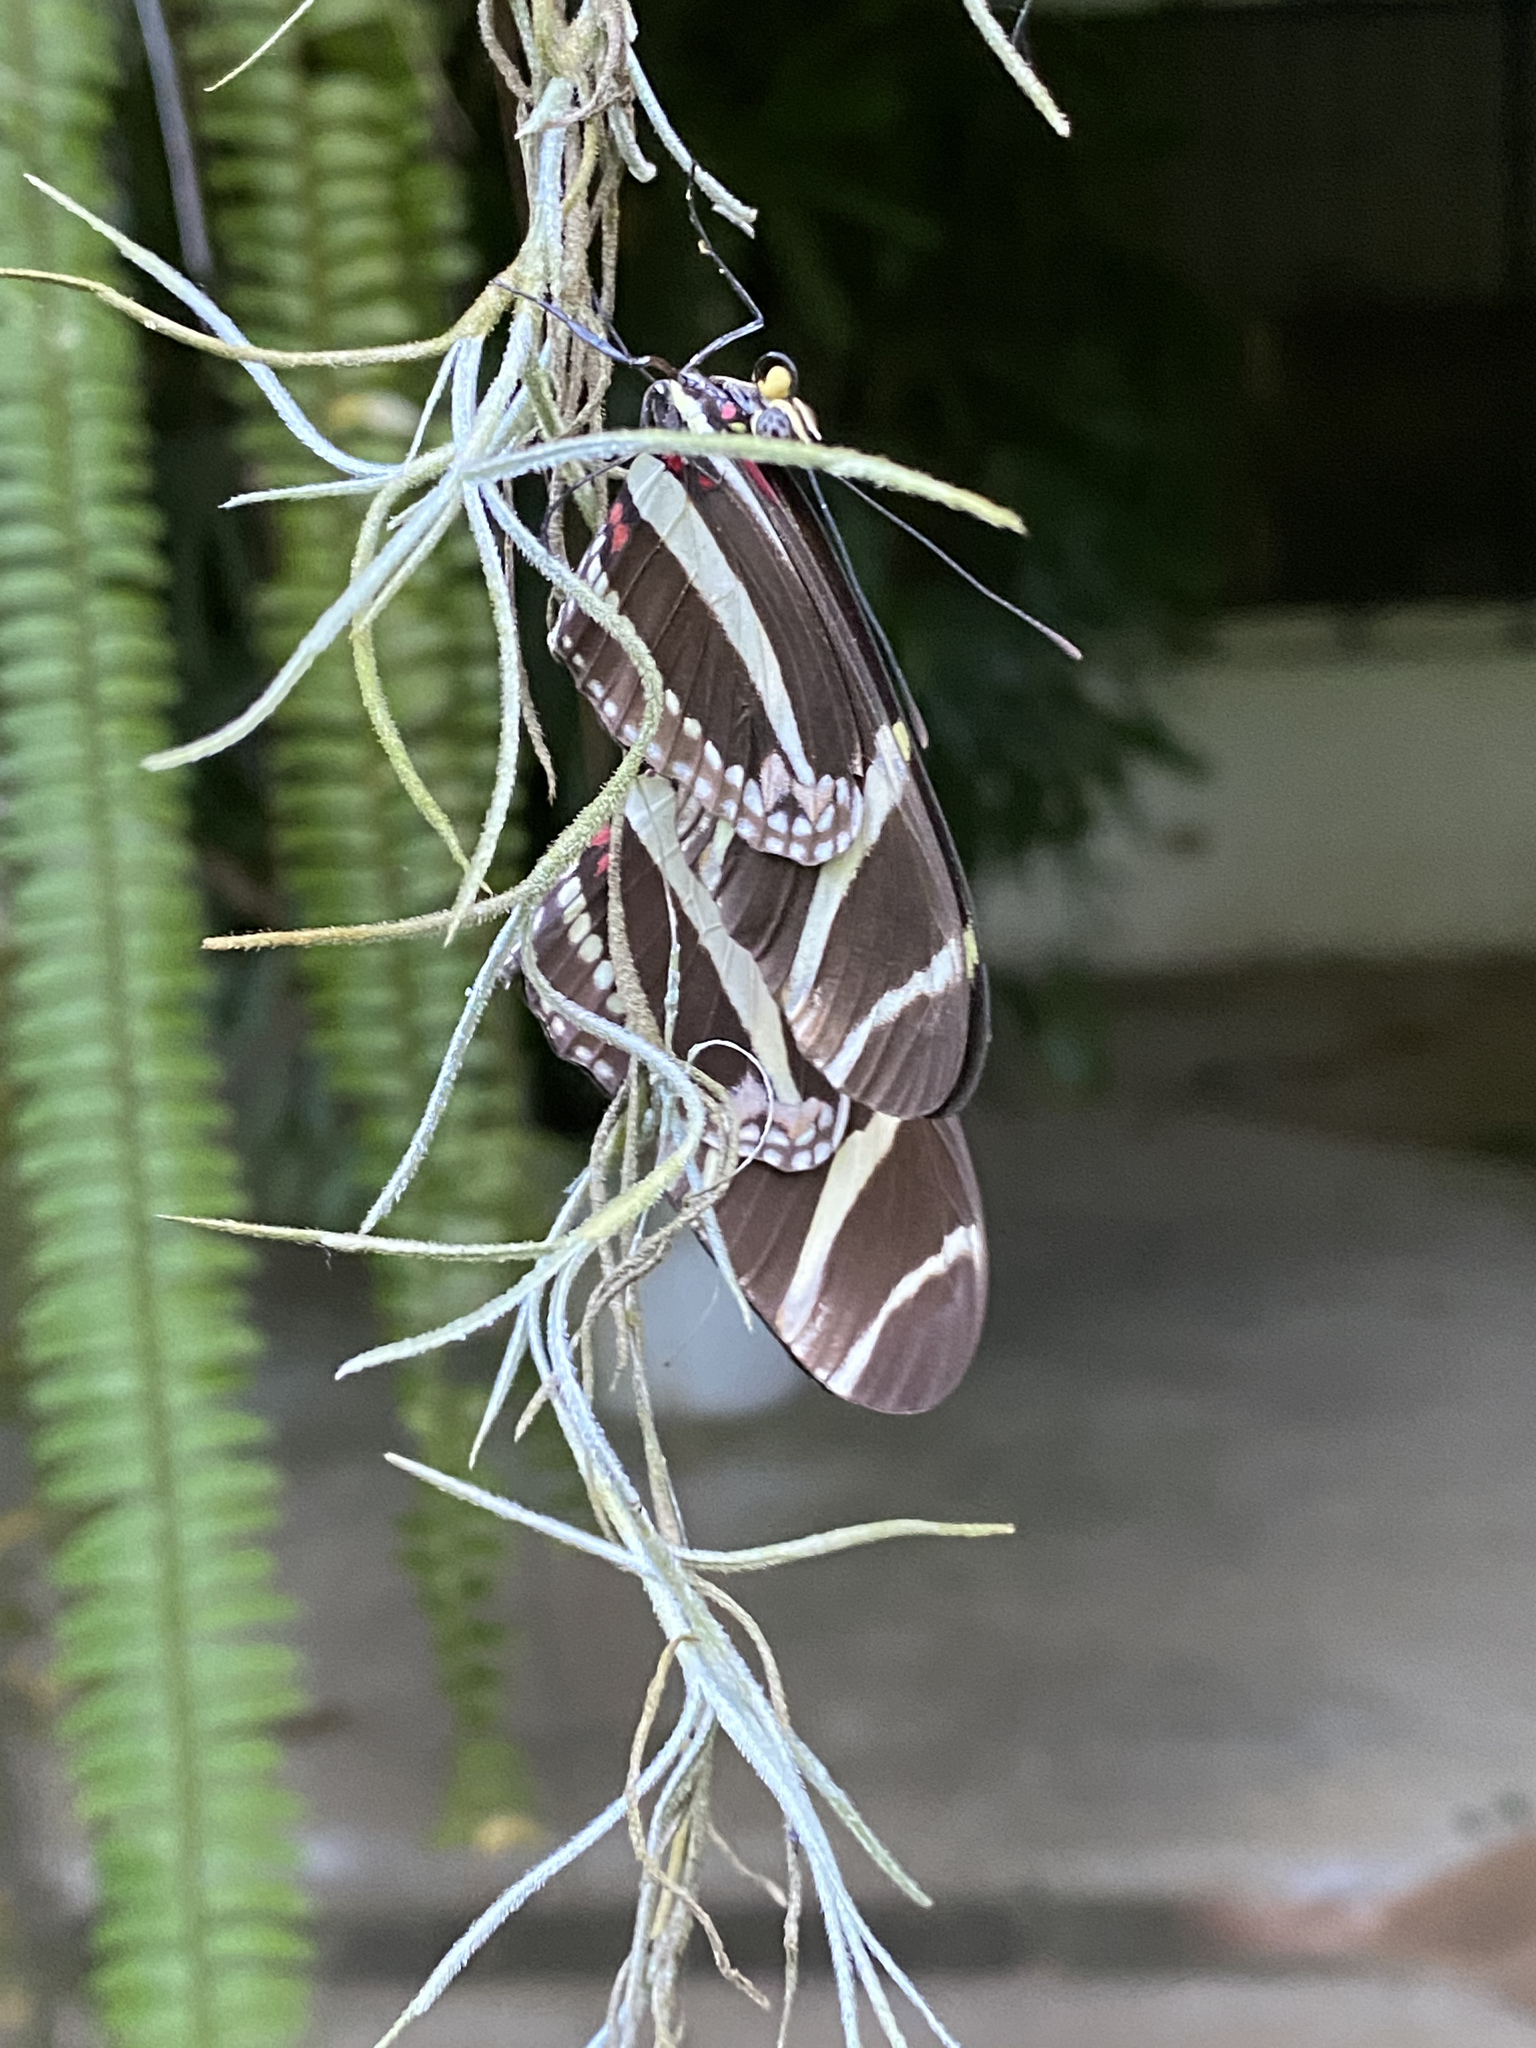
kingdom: Animalia
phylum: Arthropoda
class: Insecta
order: Lepidoptera
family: Nymphalidae
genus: Heliconius
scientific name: Heliconius charithonia
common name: Zebra long wing
